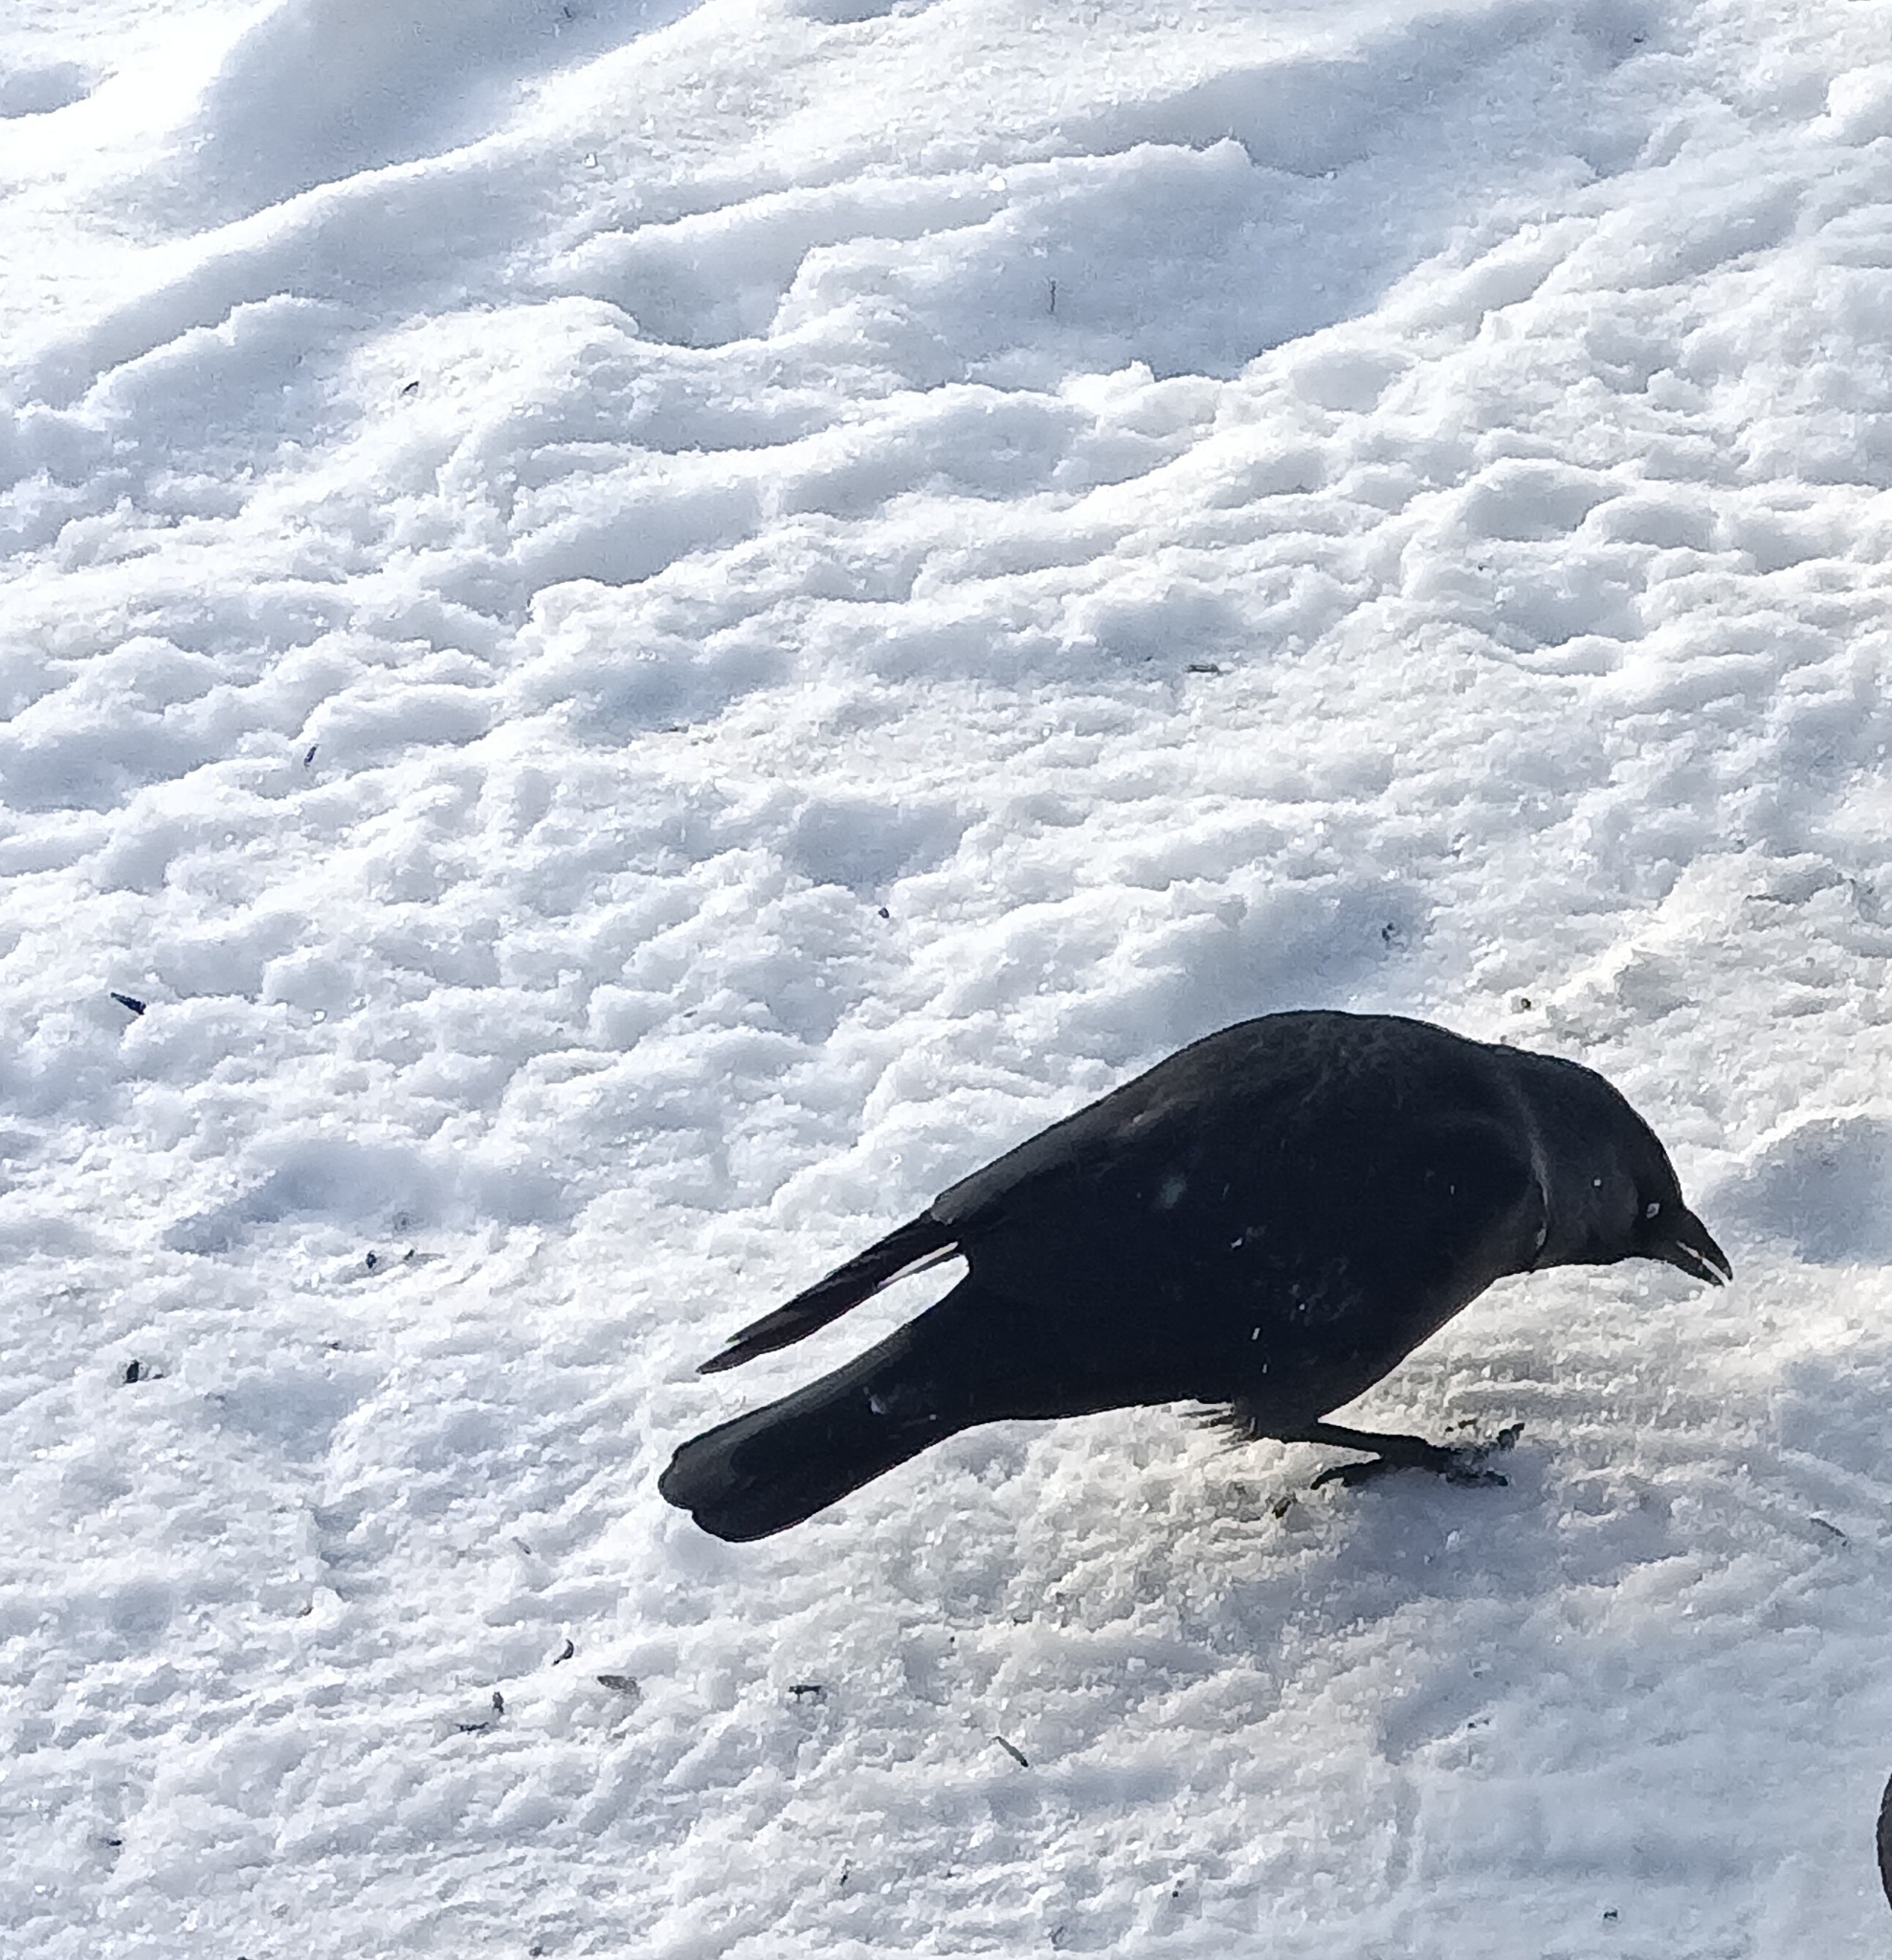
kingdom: Animalia
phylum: Chordata
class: Aves
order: Passeriformes
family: Corvidae
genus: Coloeus
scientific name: Coloeus monedula
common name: Western jackdaw
